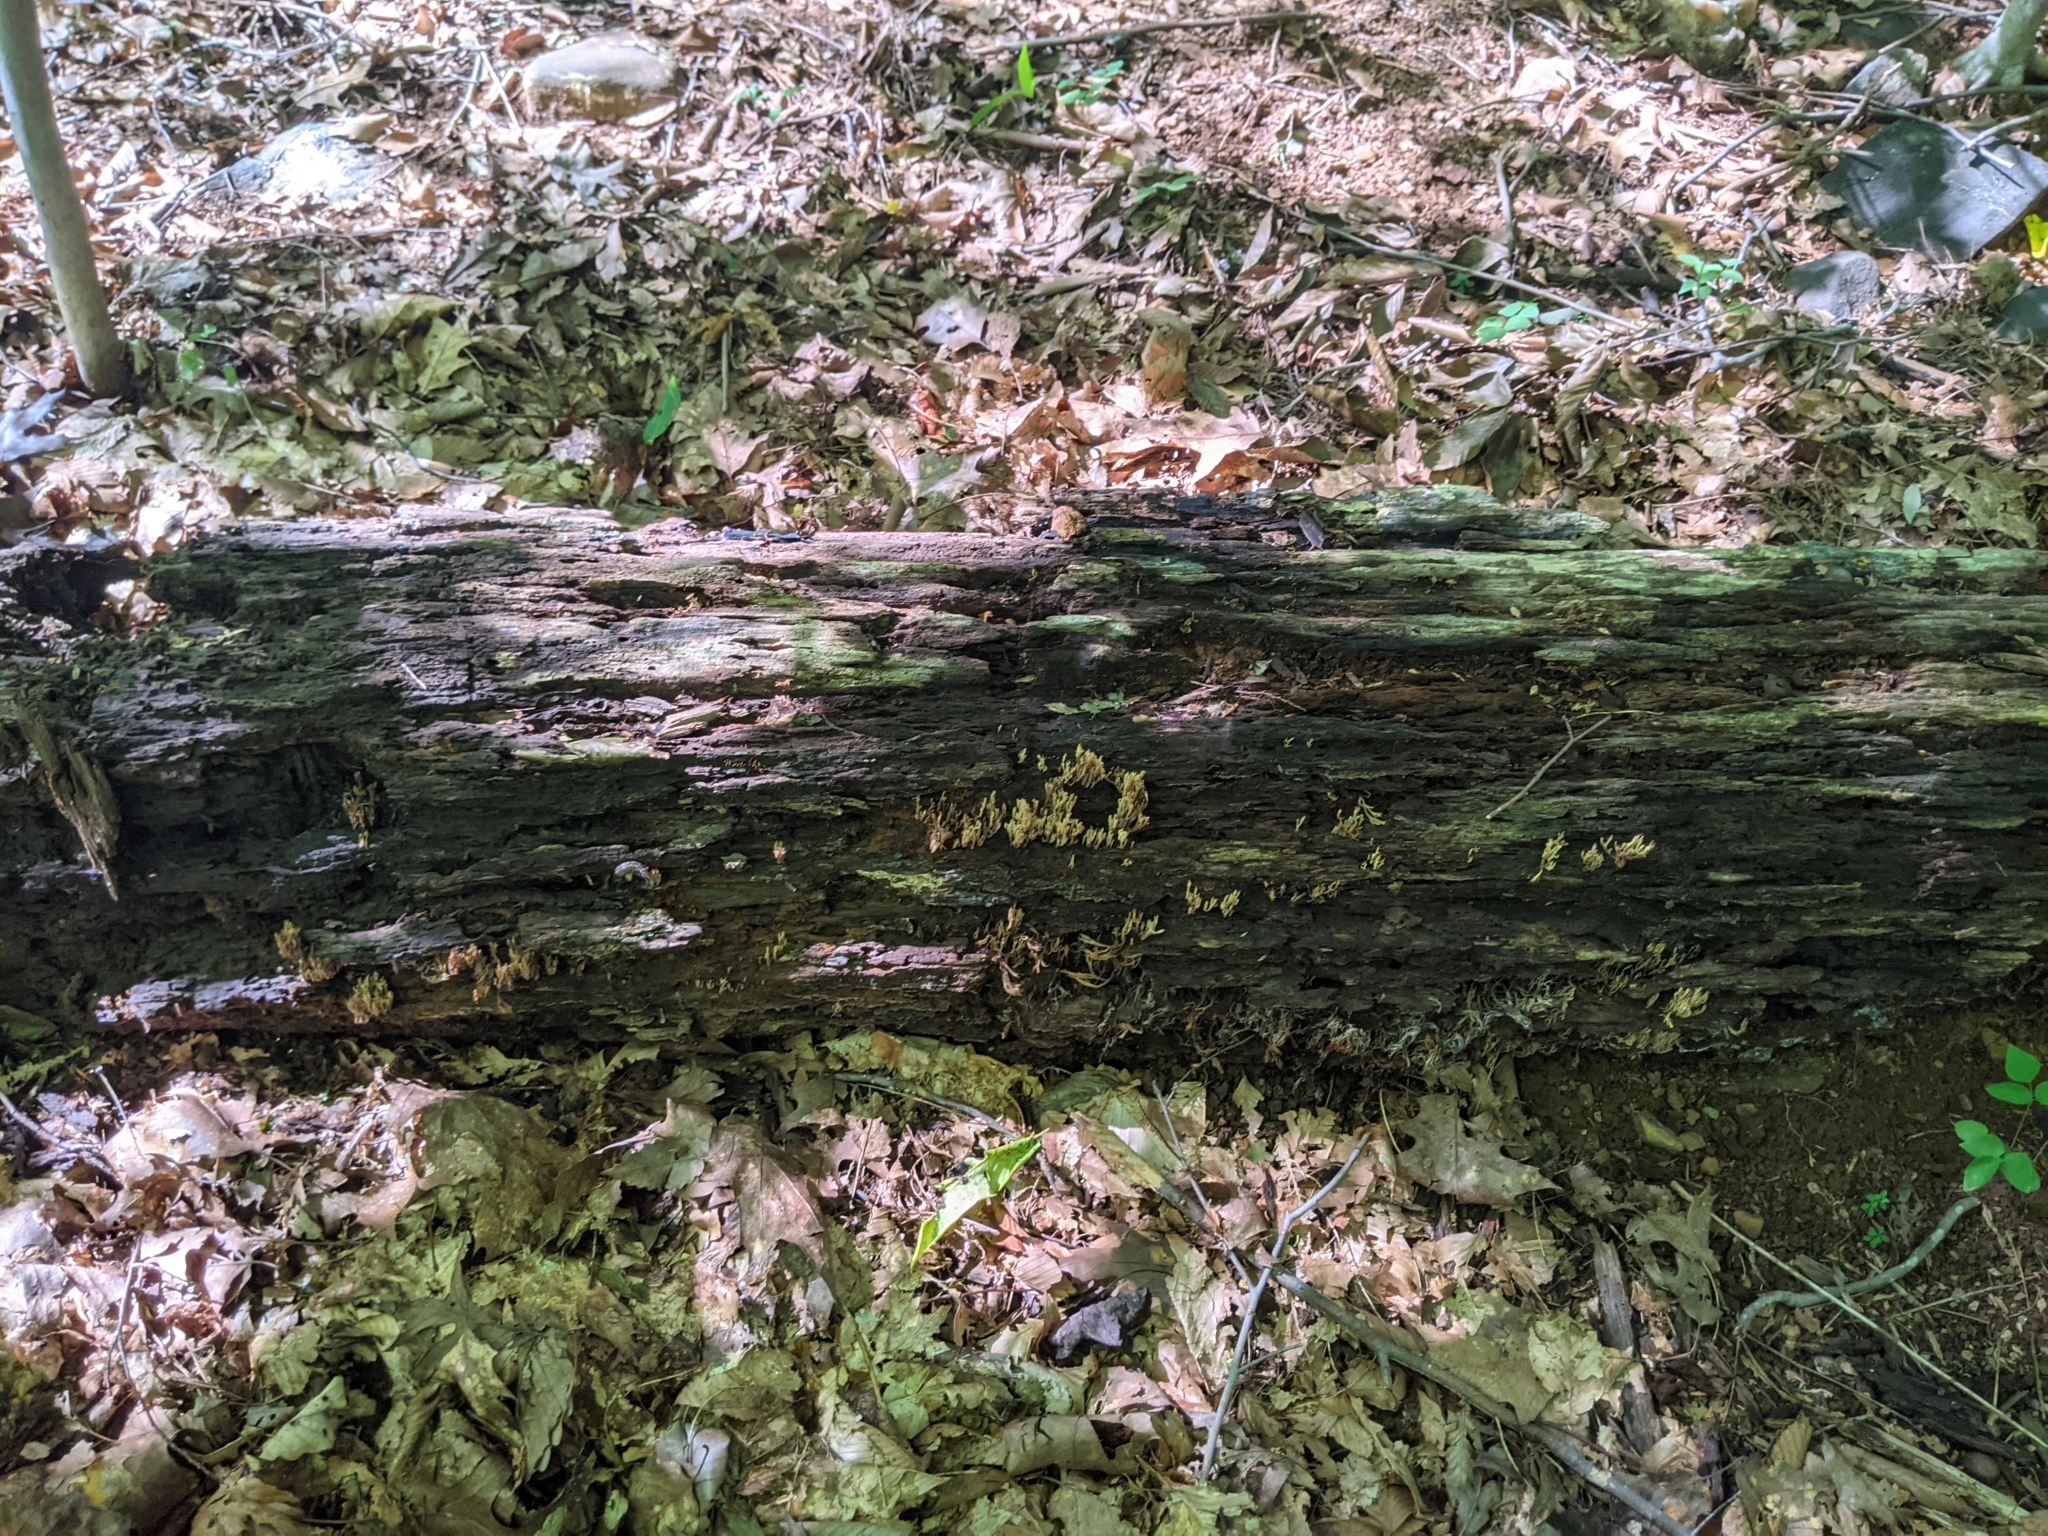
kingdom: Fungi
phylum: Basidiomycota
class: Agaricomycetes
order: Russulales
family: Auriscalpiaceae
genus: Artomyces
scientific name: Artomyces pyxidatus
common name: Crown-tipped coral fungus
